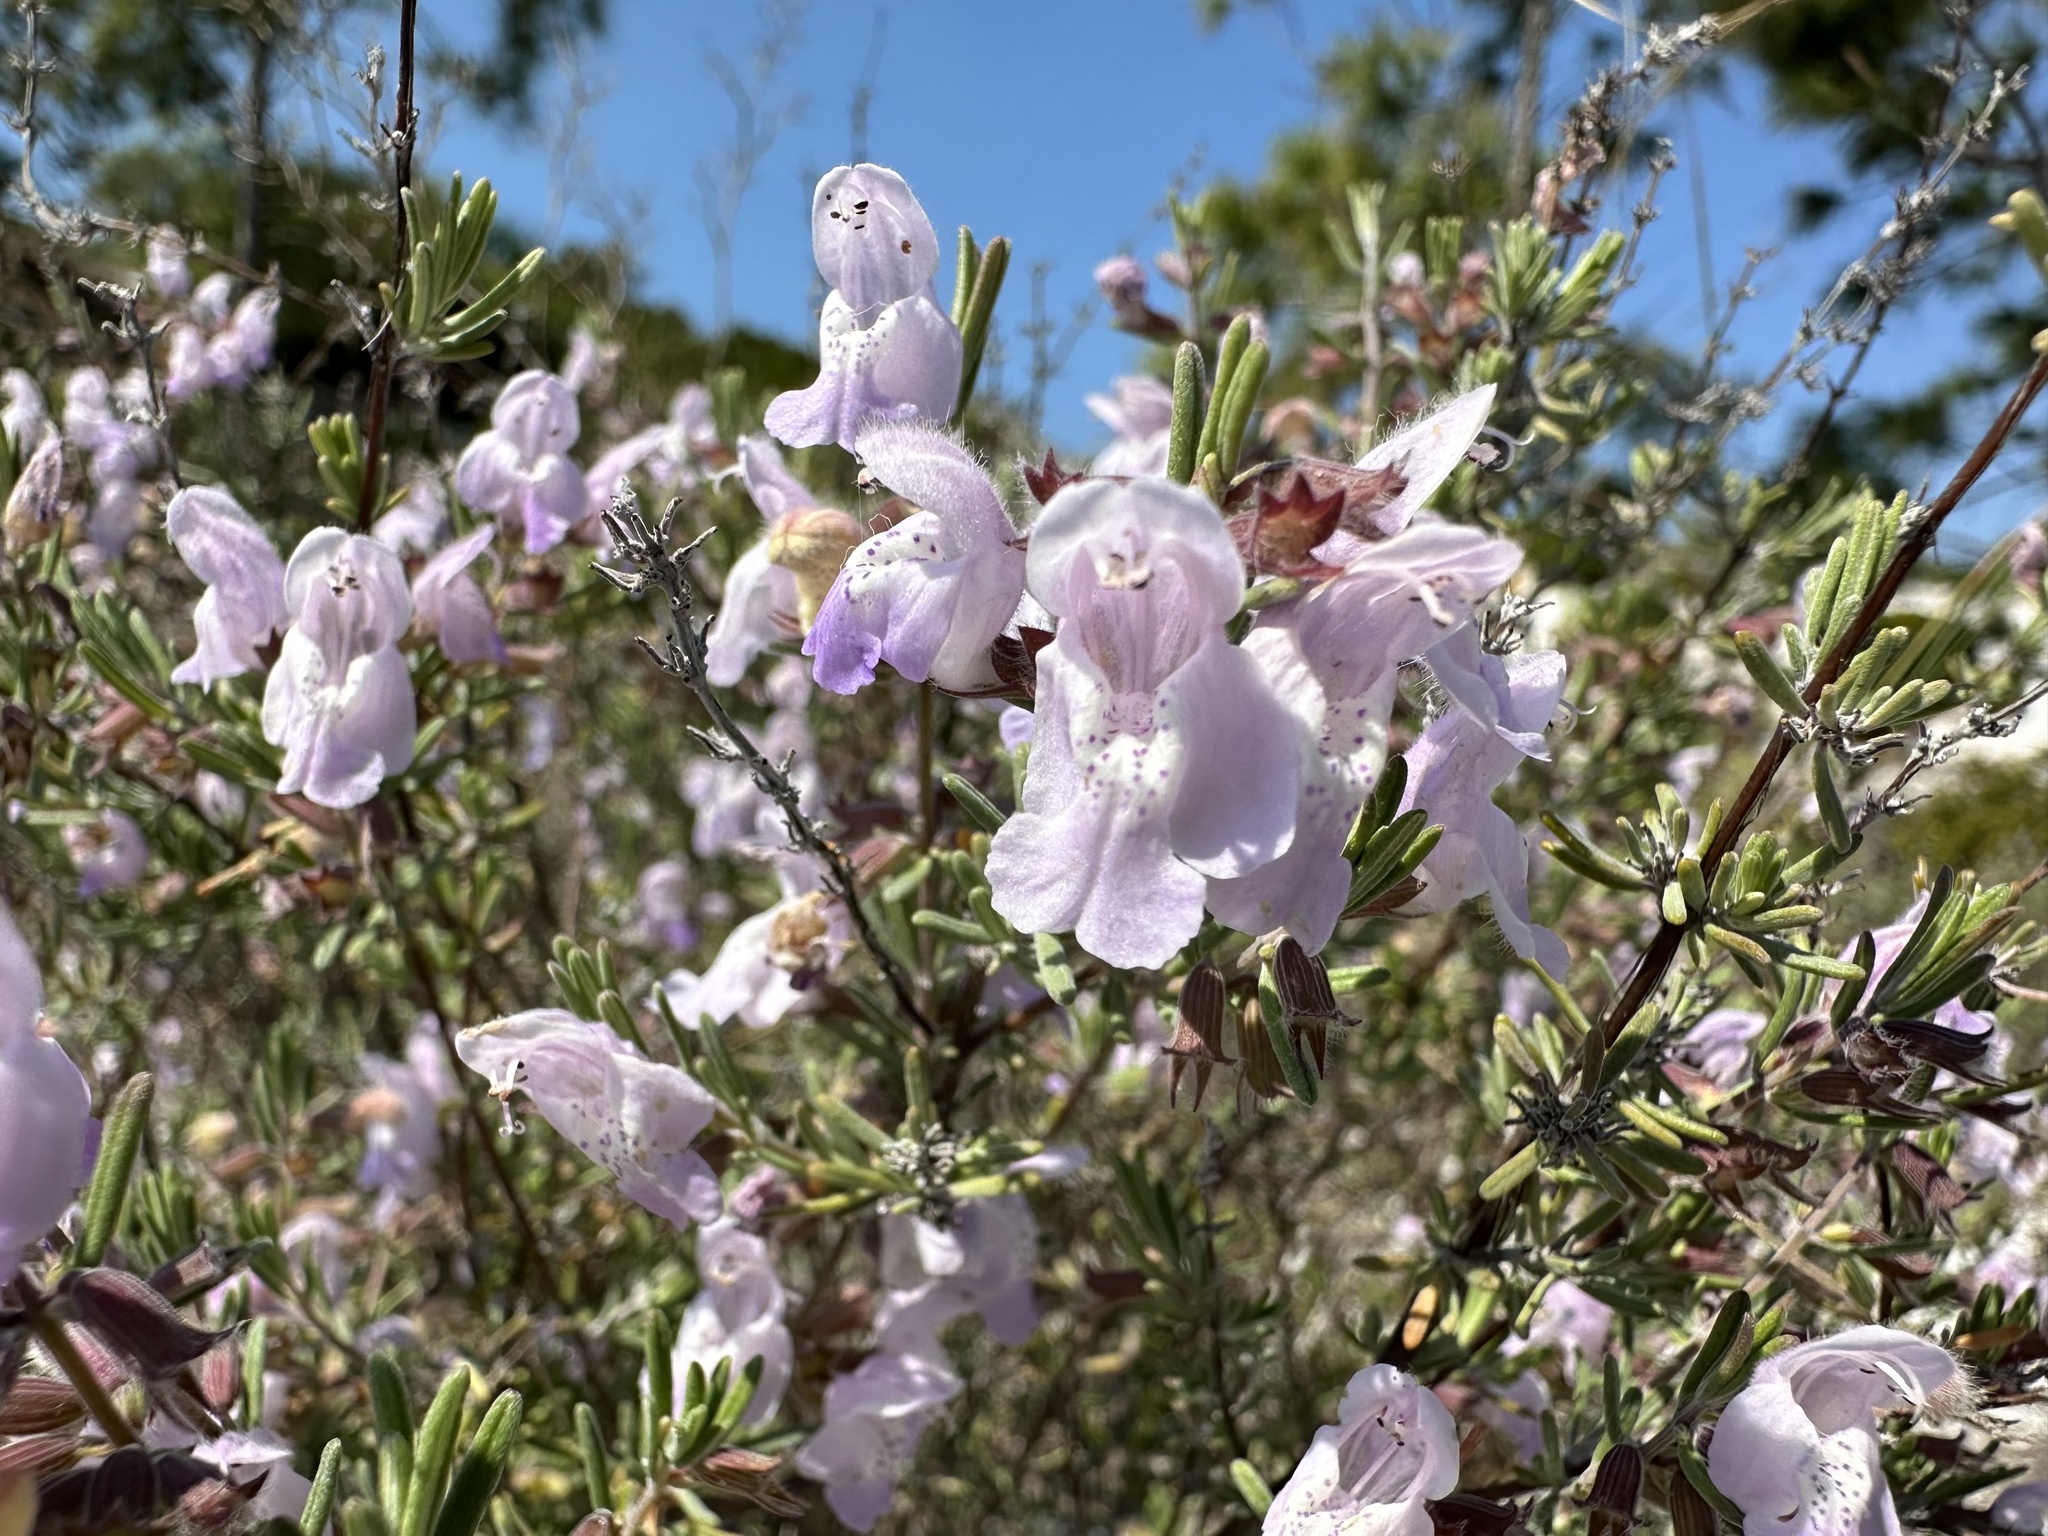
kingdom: Plantae
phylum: Tracheophyta
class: Magnoliopsida
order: Lamiales
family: Lamiaceae
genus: Conradina
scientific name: Conradina canescens
